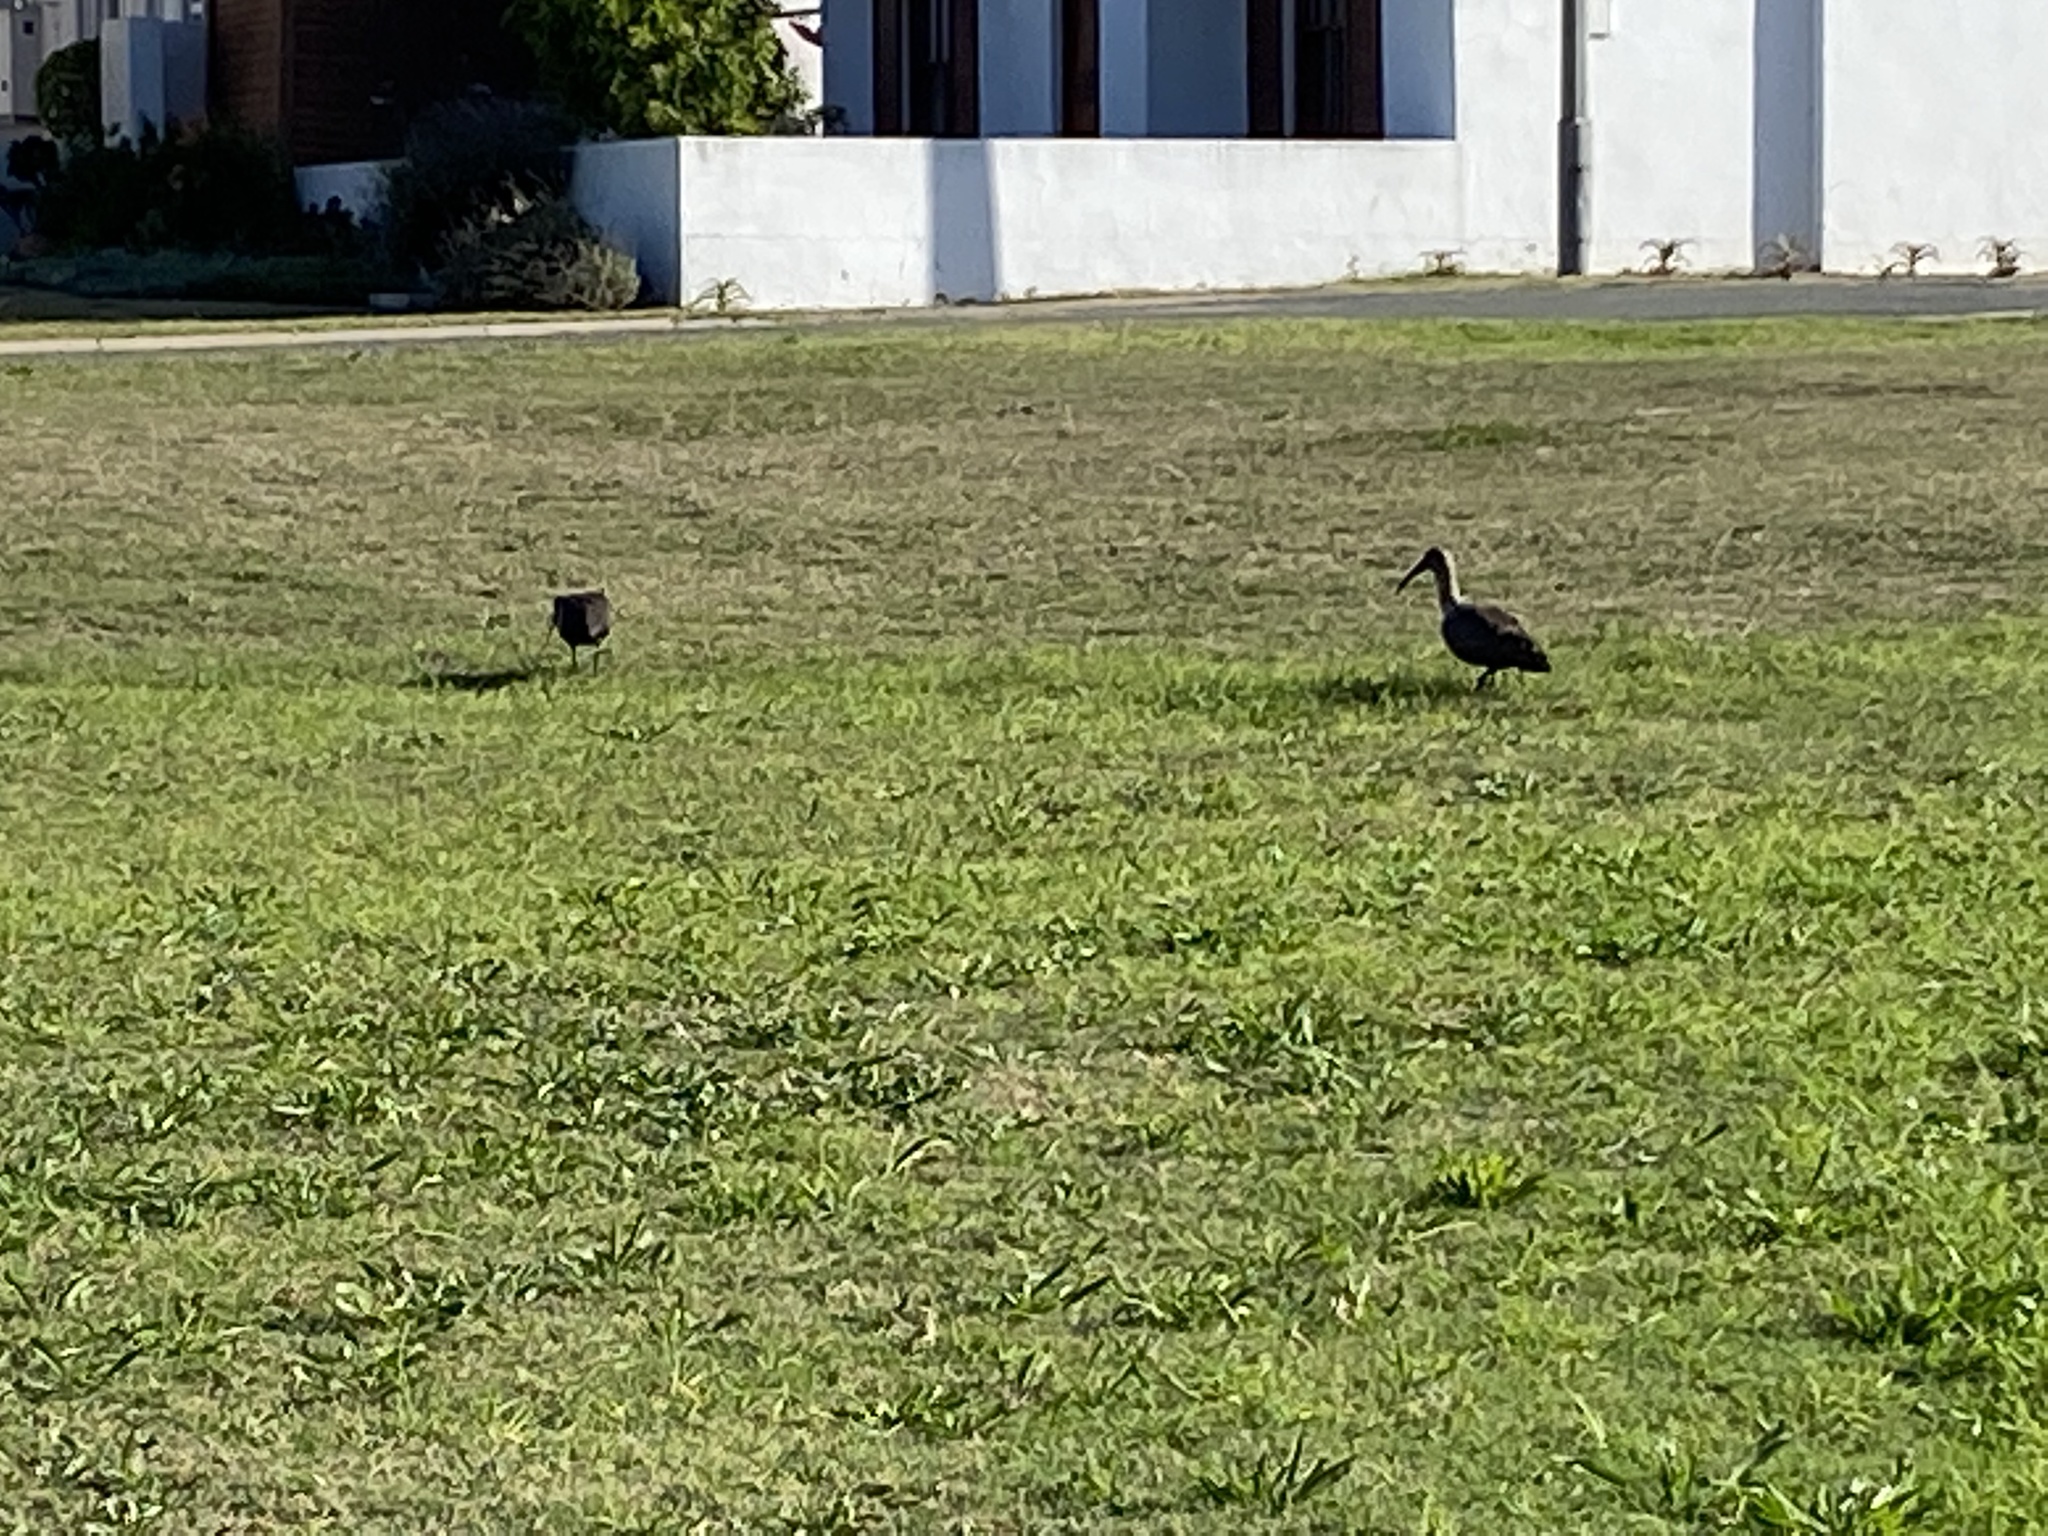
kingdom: Animalia
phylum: Chordata
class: Aves
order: Pelecaniformes
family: Threskiornithidae
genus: Bostrychia
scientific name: Bostrychia hagedash
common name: Hadada ibis
